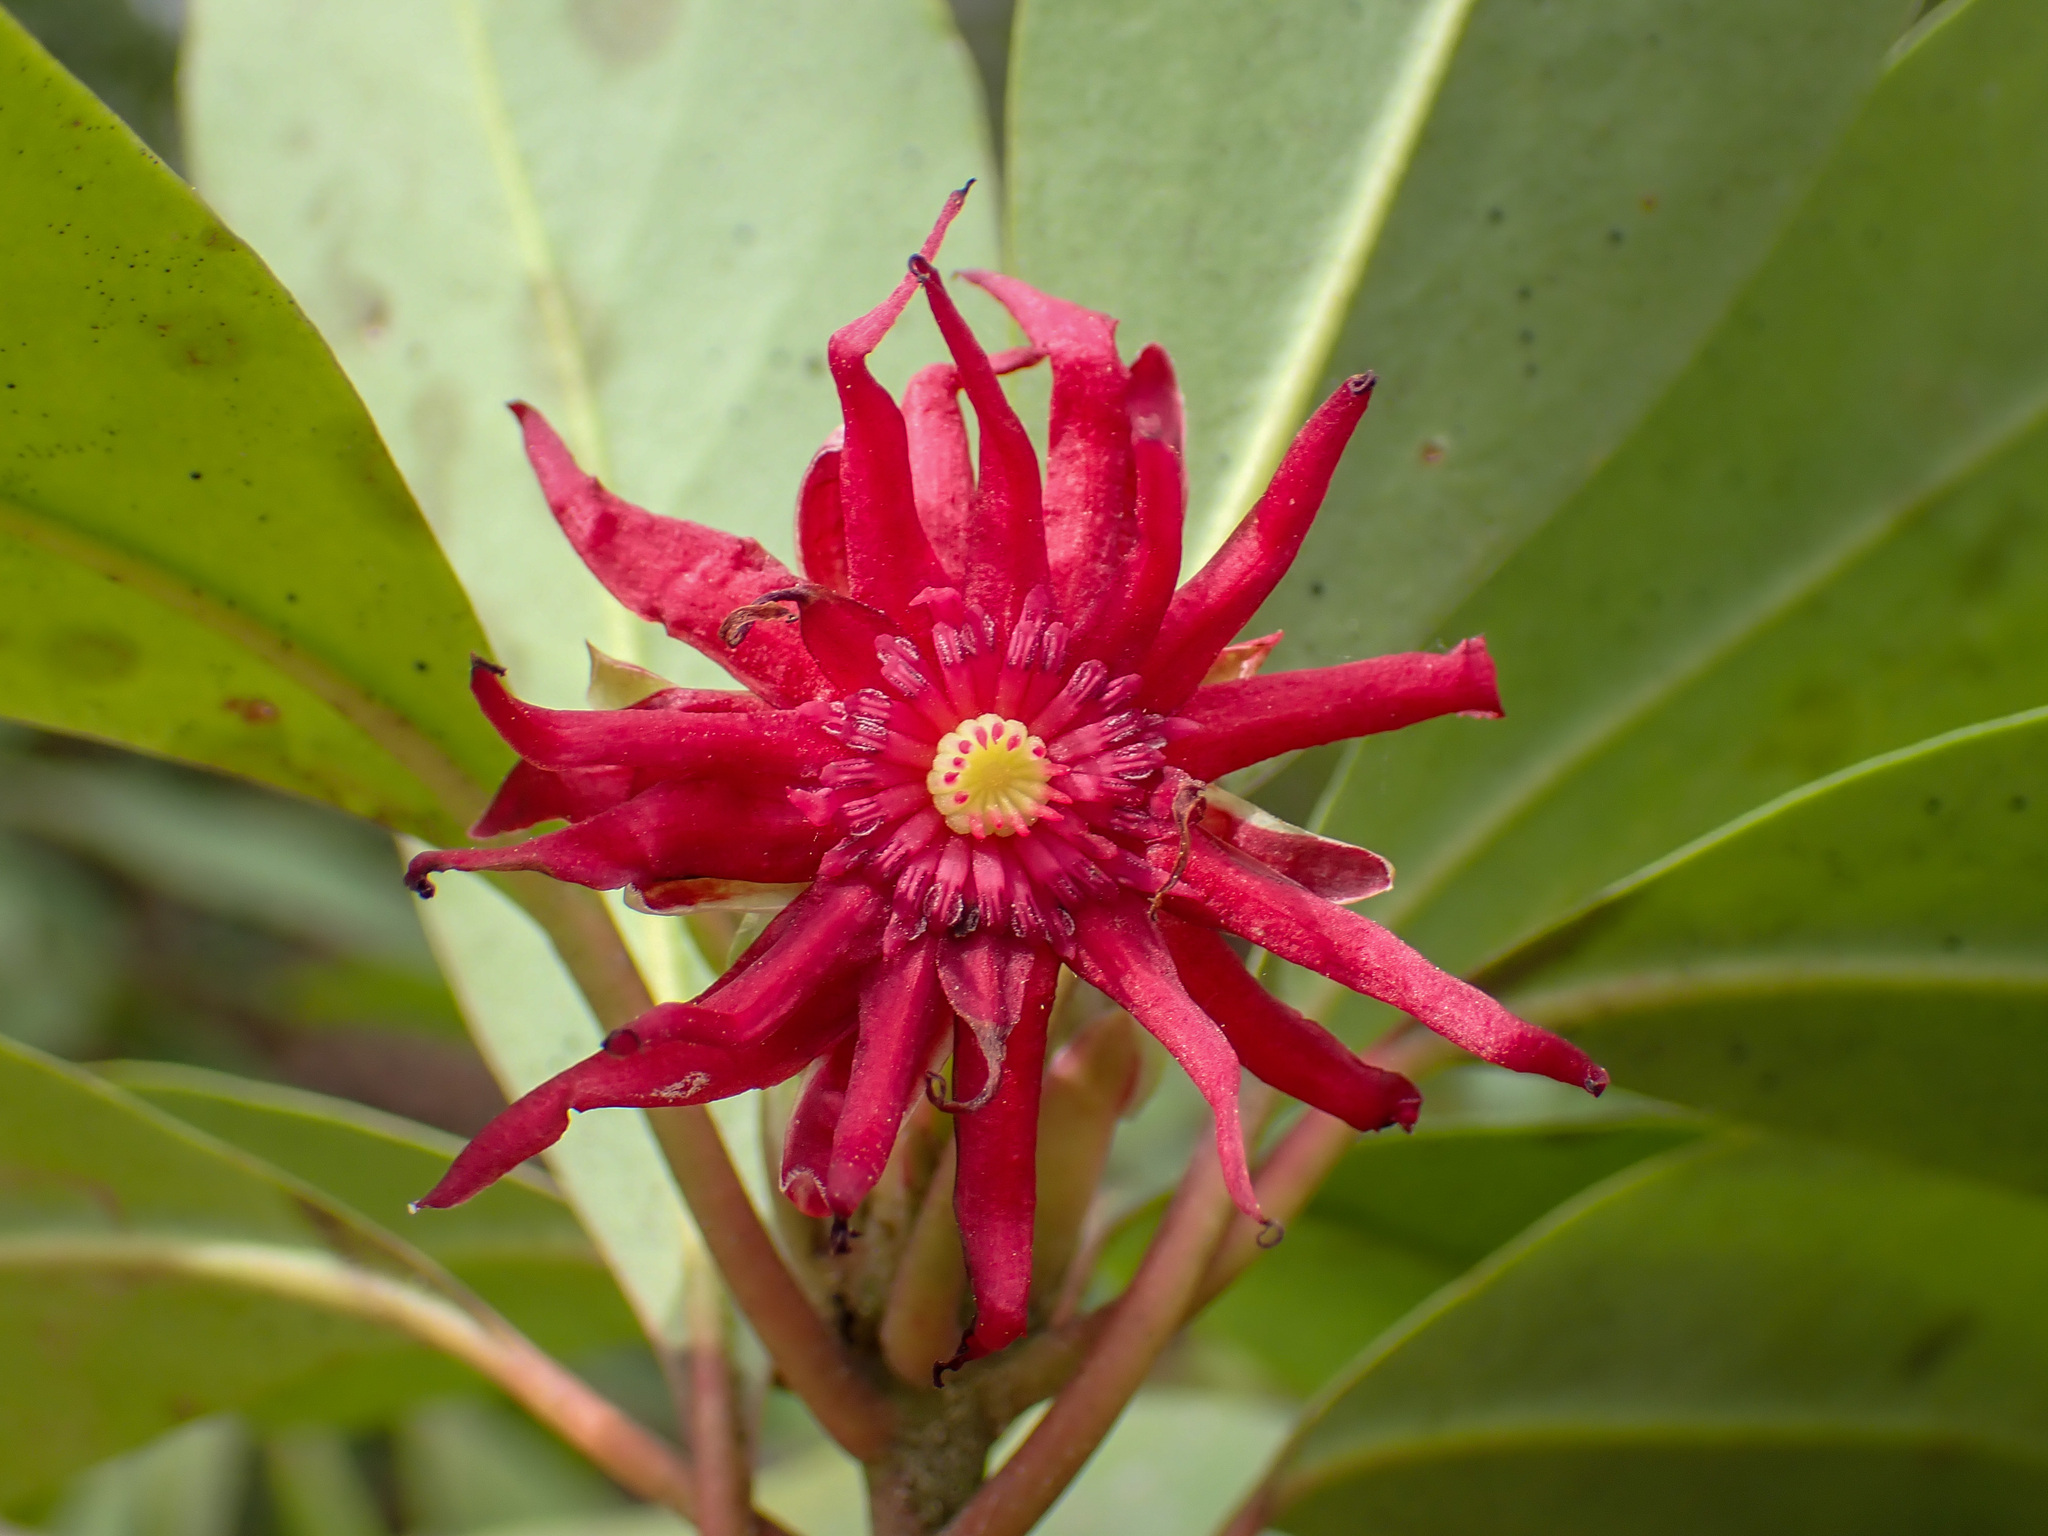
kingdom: Plantae
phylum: Tracheophyta
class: Magnoliopsida
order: Austrobaileyales
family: Schisandraceae
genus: Illicium
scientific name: Illicium floridanum
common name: Florida anisetree
